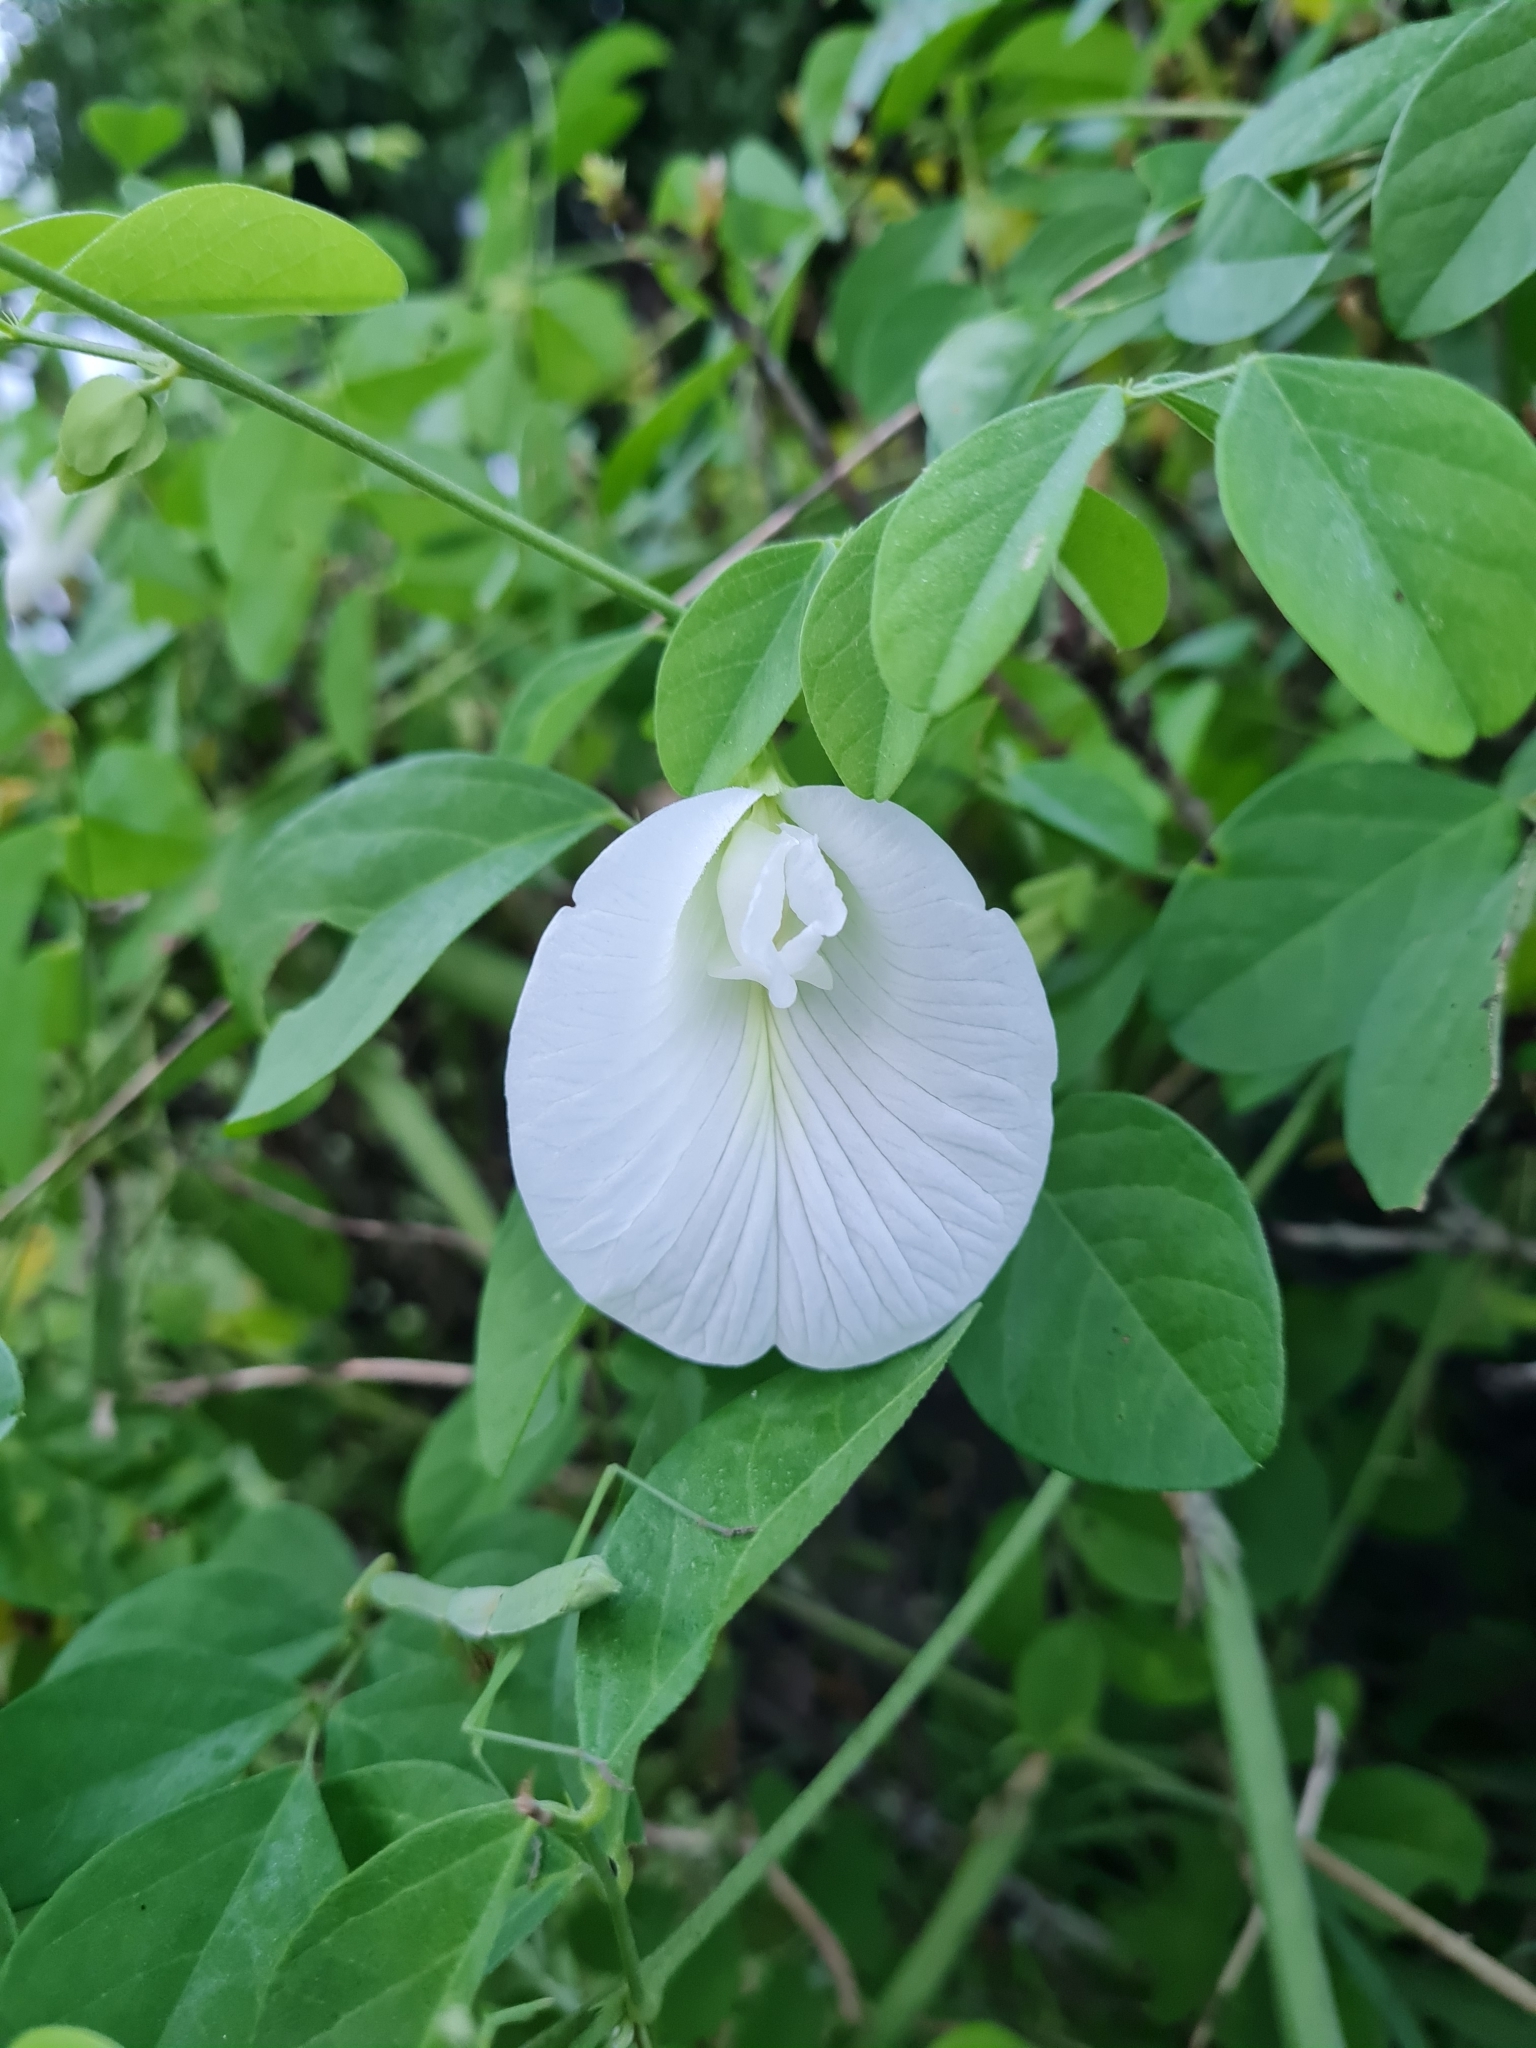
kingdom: Plantae
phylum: Tracheophyta
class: Magnoliopsida
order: Fabales
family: Fabaceae
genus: Clitoria
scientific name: Clitoria ternatea
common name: Asian pigeonwings
